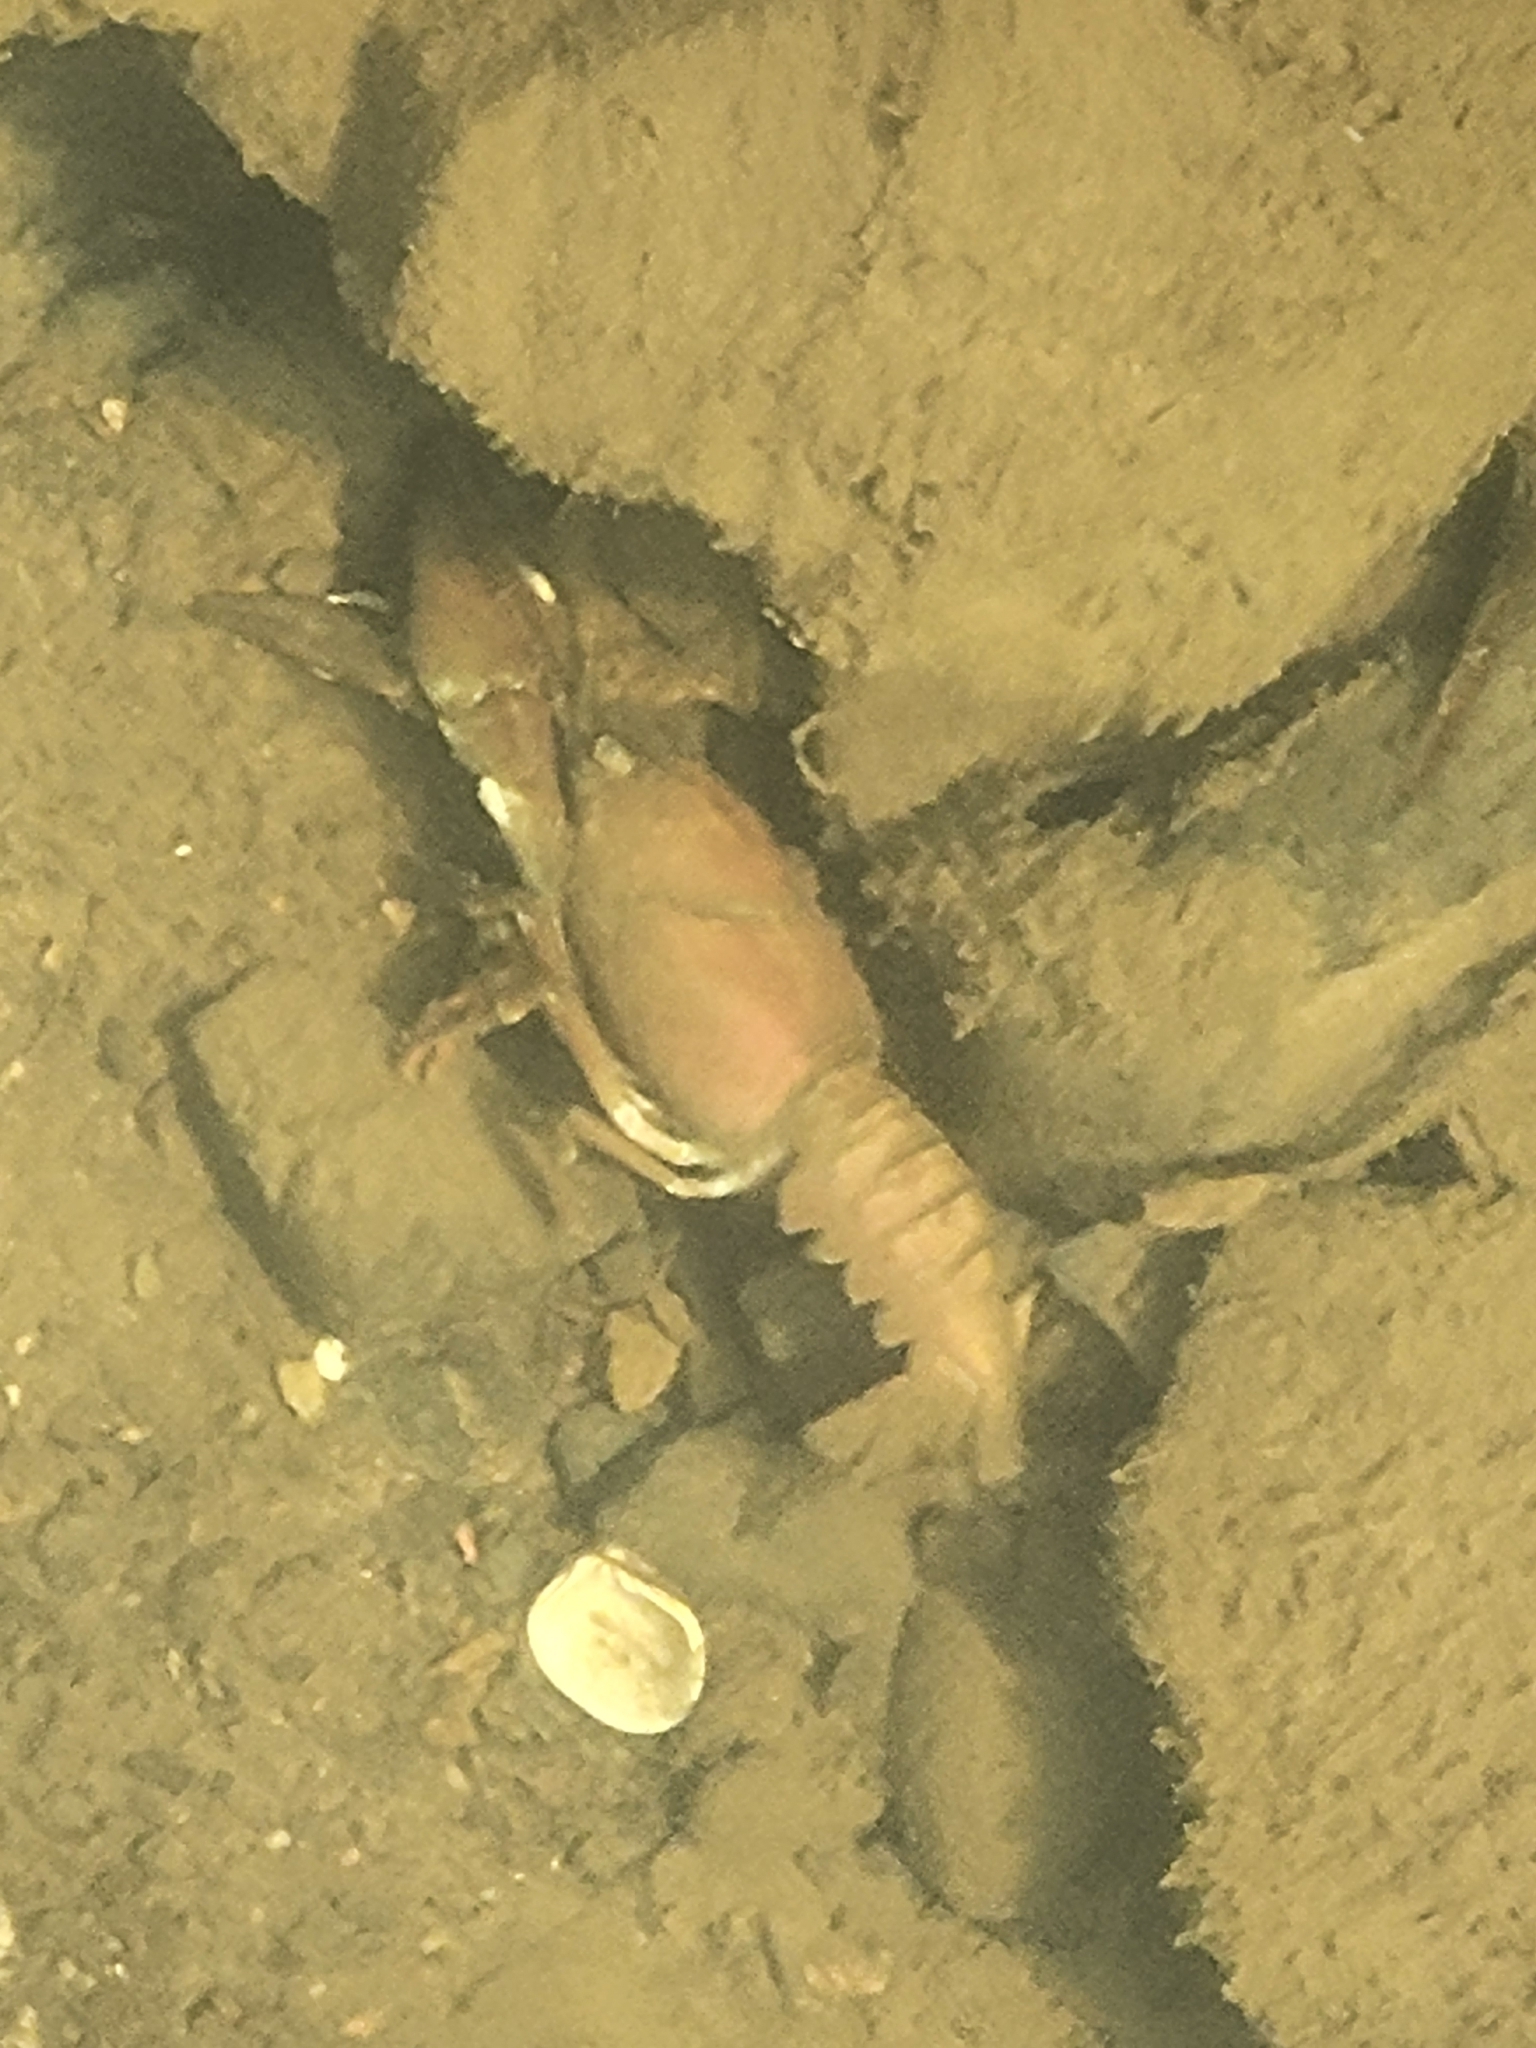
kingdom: Animalia
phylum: Arthropoda
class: Malacostraca
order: Decapoda
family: Astacidae
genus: Pacifastacus
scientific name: Pacifastacus leniusculus
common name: Signal crayfish
